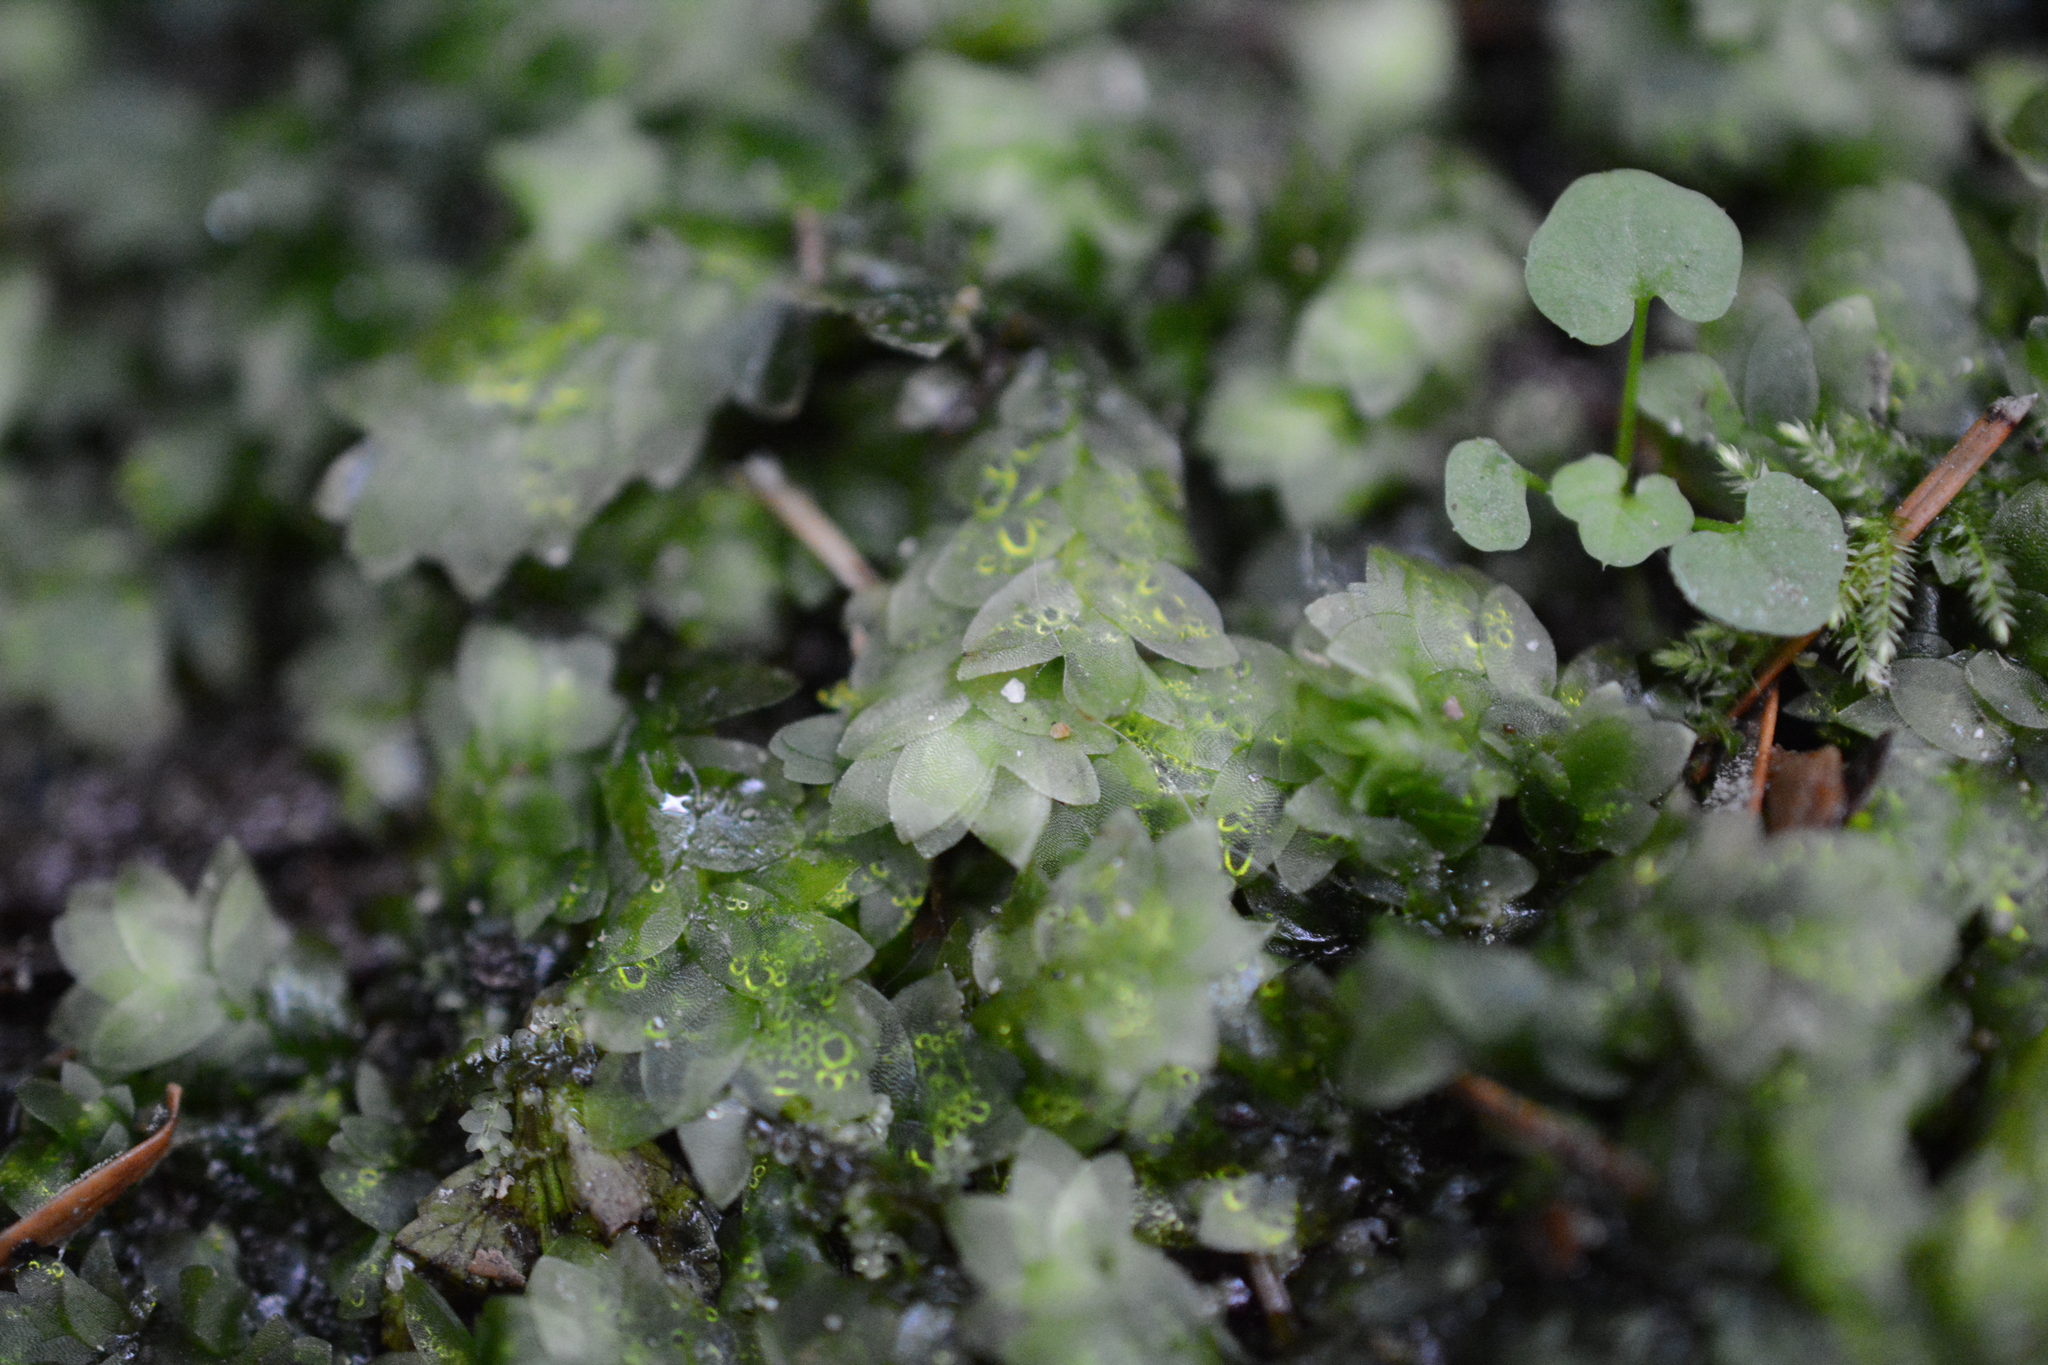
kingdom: Plantae
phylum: Bryophyta
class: Bryopsida
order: Hookeriales
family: Hookeriaceae
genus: Hookeria
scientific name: Hookeria lucens
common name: Shining hookeria
